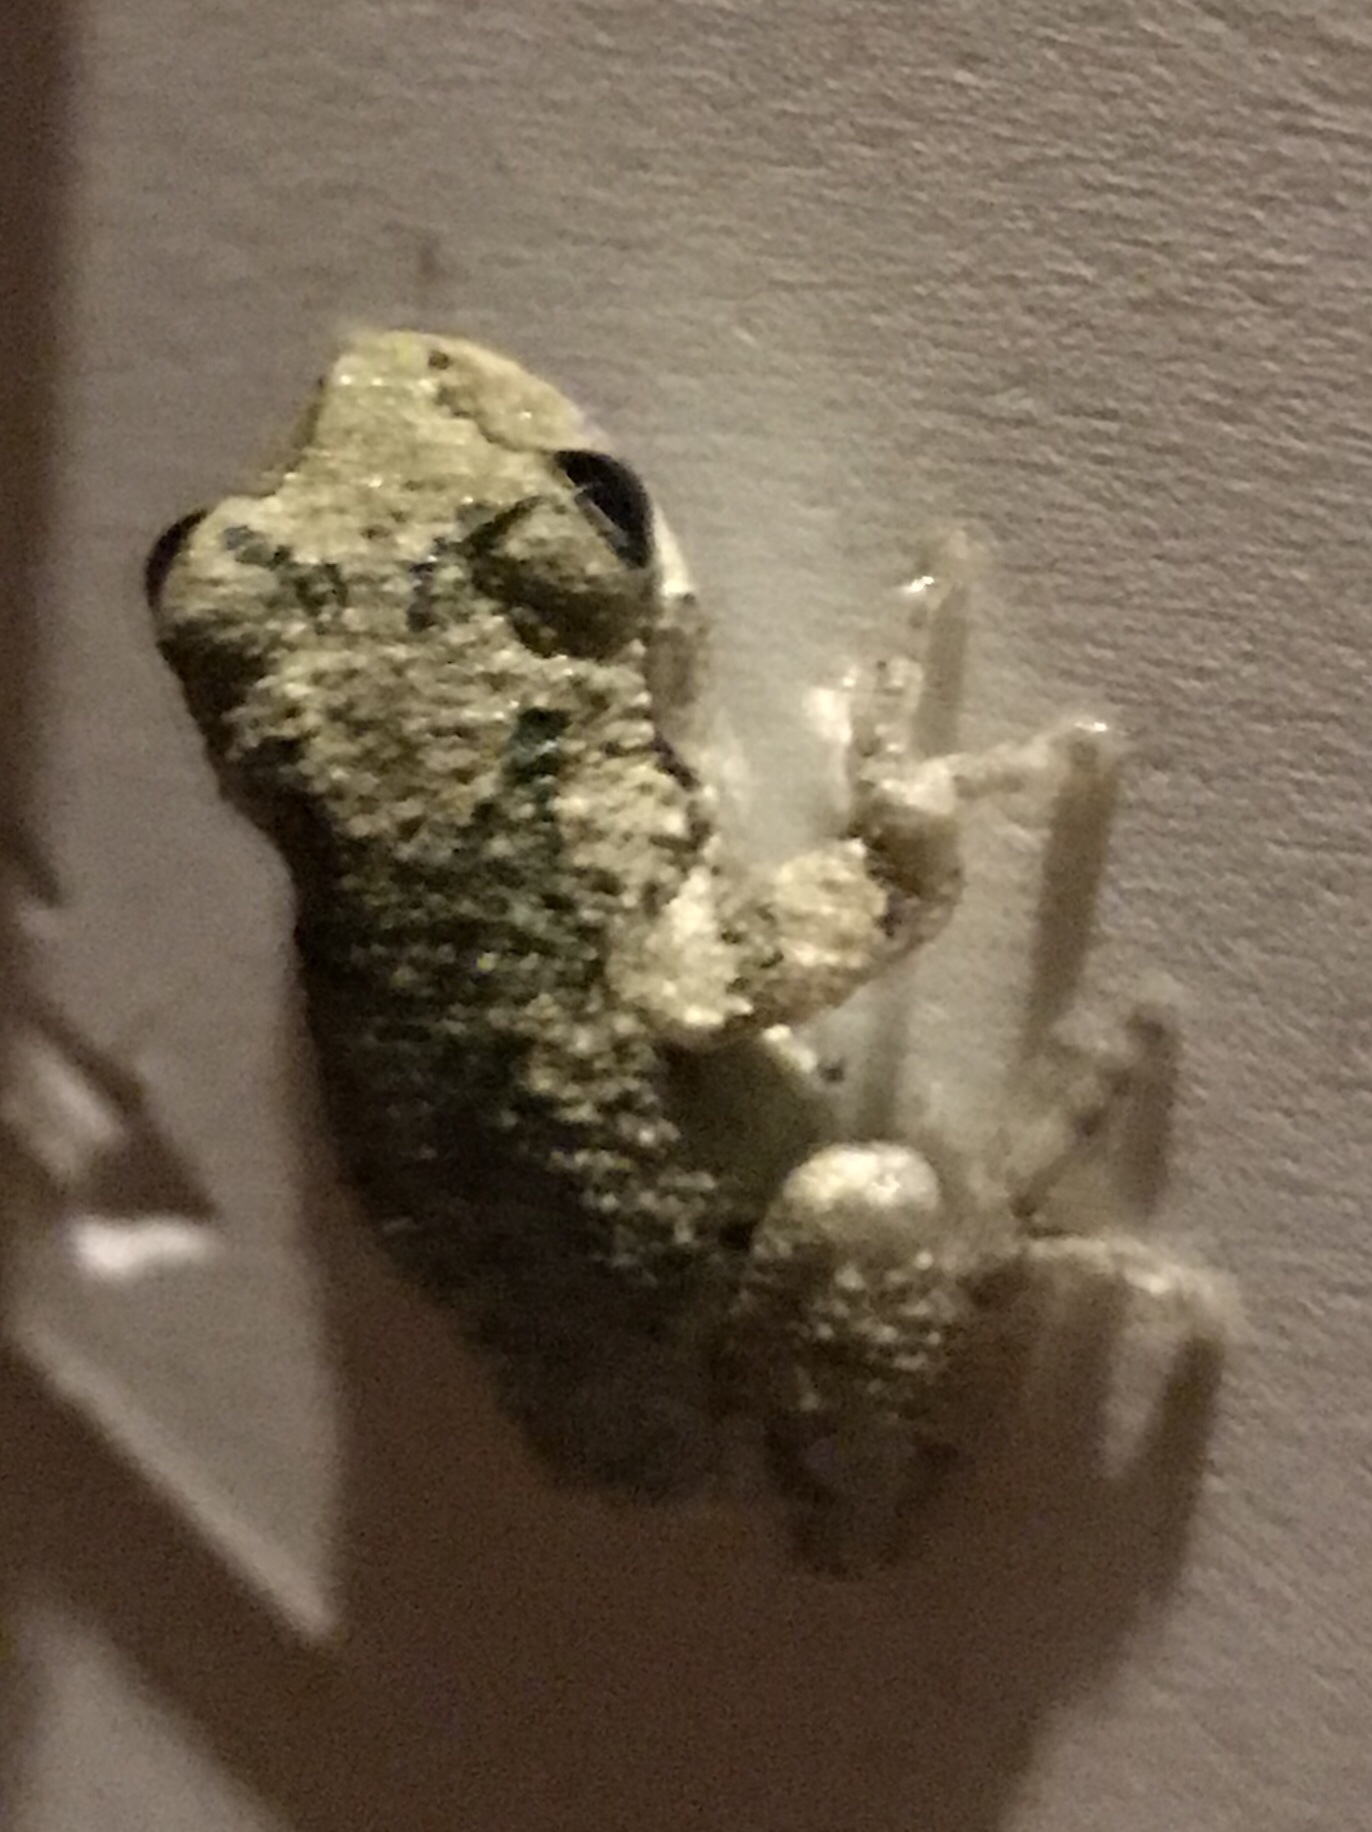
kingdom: Animalia
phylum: Chordata
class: Amphibia
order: Anura
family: Hylidae
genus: Hyla
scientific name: Hyla
